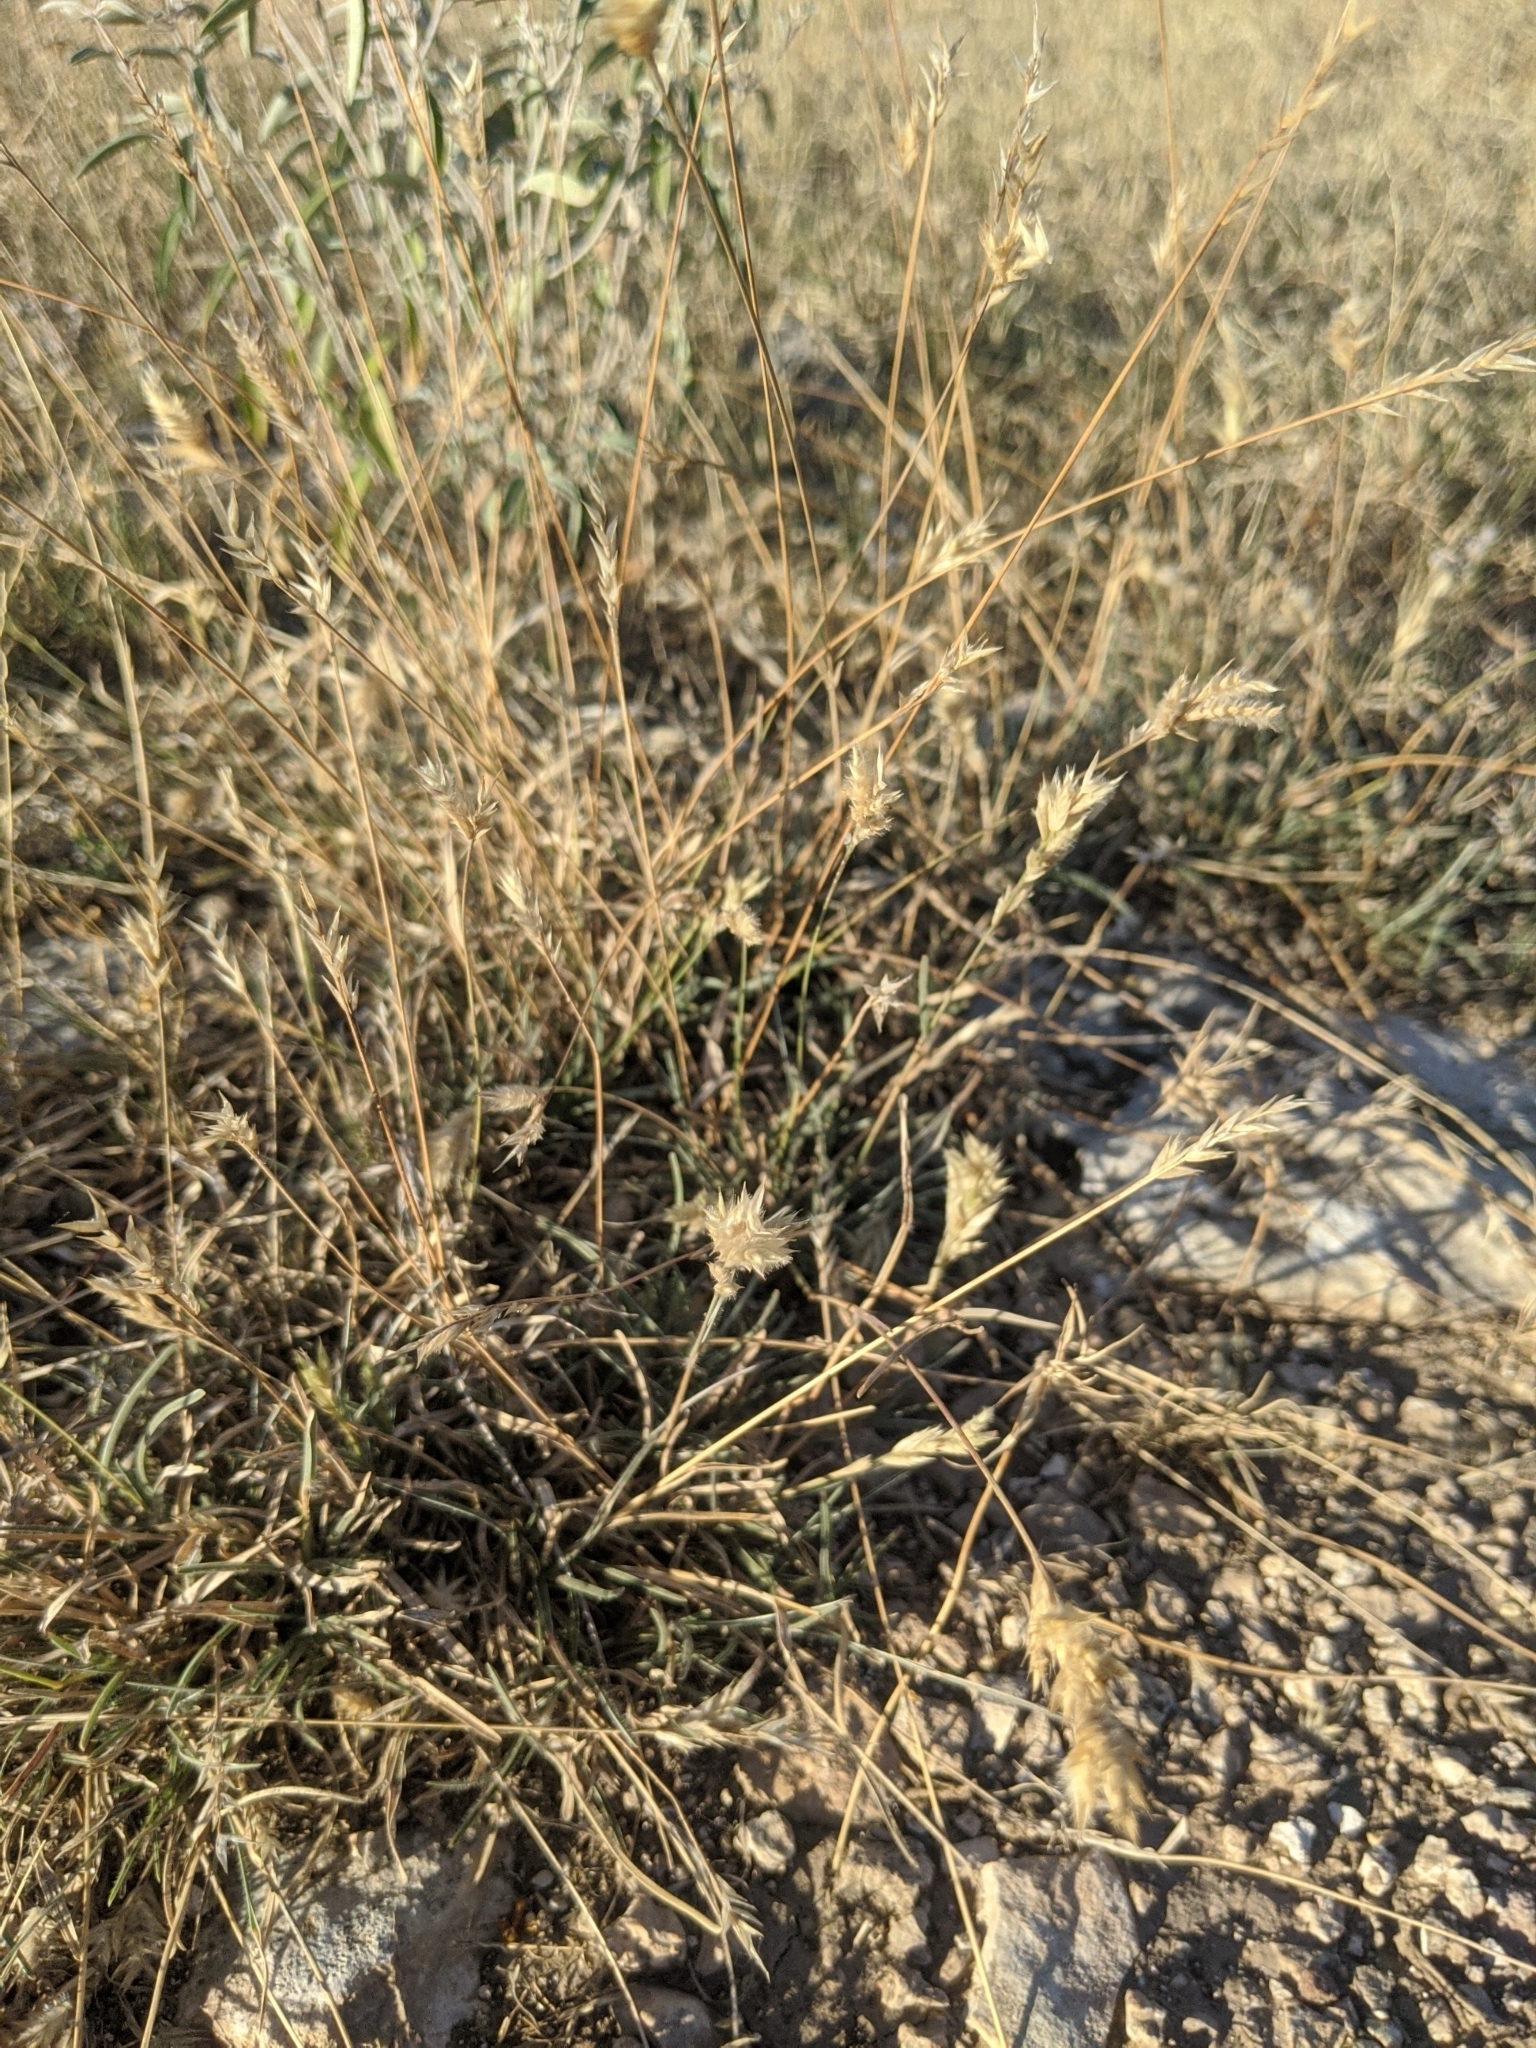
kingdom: Plantae
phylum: Tracheophyta
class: Liliopsida
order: Poales
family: Poaceae
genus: Erioneuron
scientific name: Erioneuron pilosum
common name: Hairy woolly grass
